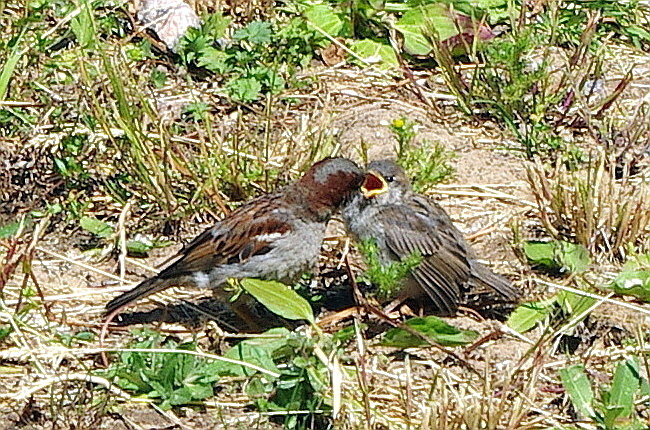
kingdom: Animalia
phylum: Chordata
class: Aves
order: Passeriformes
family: Passeridae
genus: Passer
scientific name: Passer domesticus
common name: House sparrow
